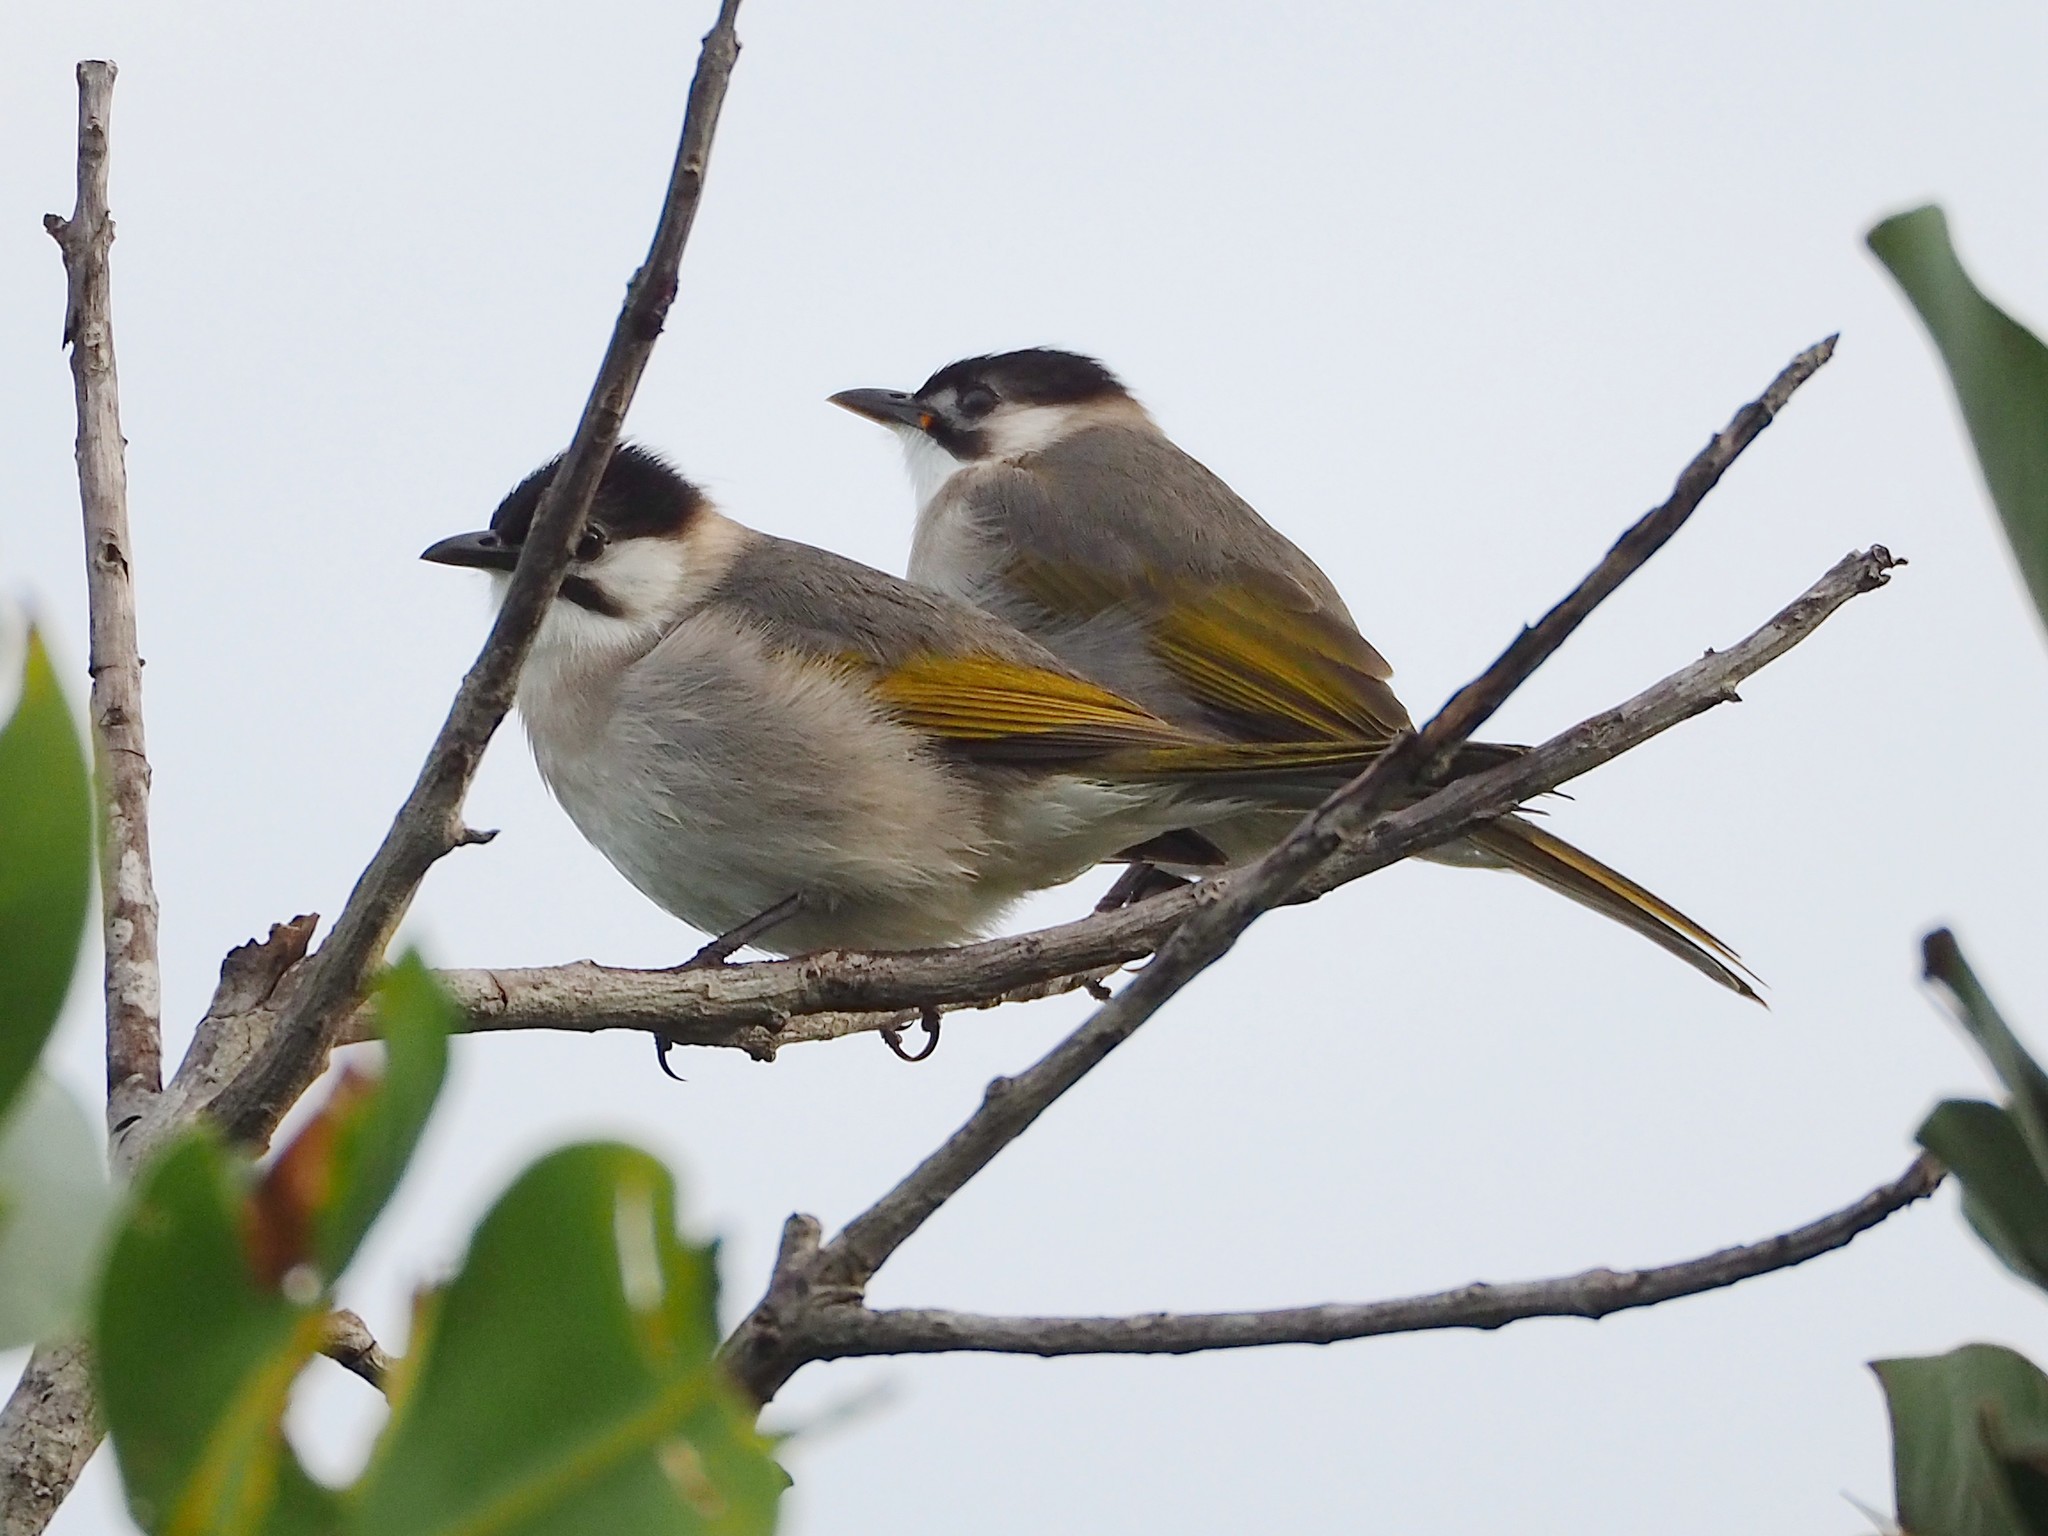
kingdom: Animalia
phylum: Chordata
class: Aves
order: Passeriformes
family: Pycnonotidae
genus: Pycnonotus
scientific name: Pycnonotus taivanus
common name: Styan's bulbul
